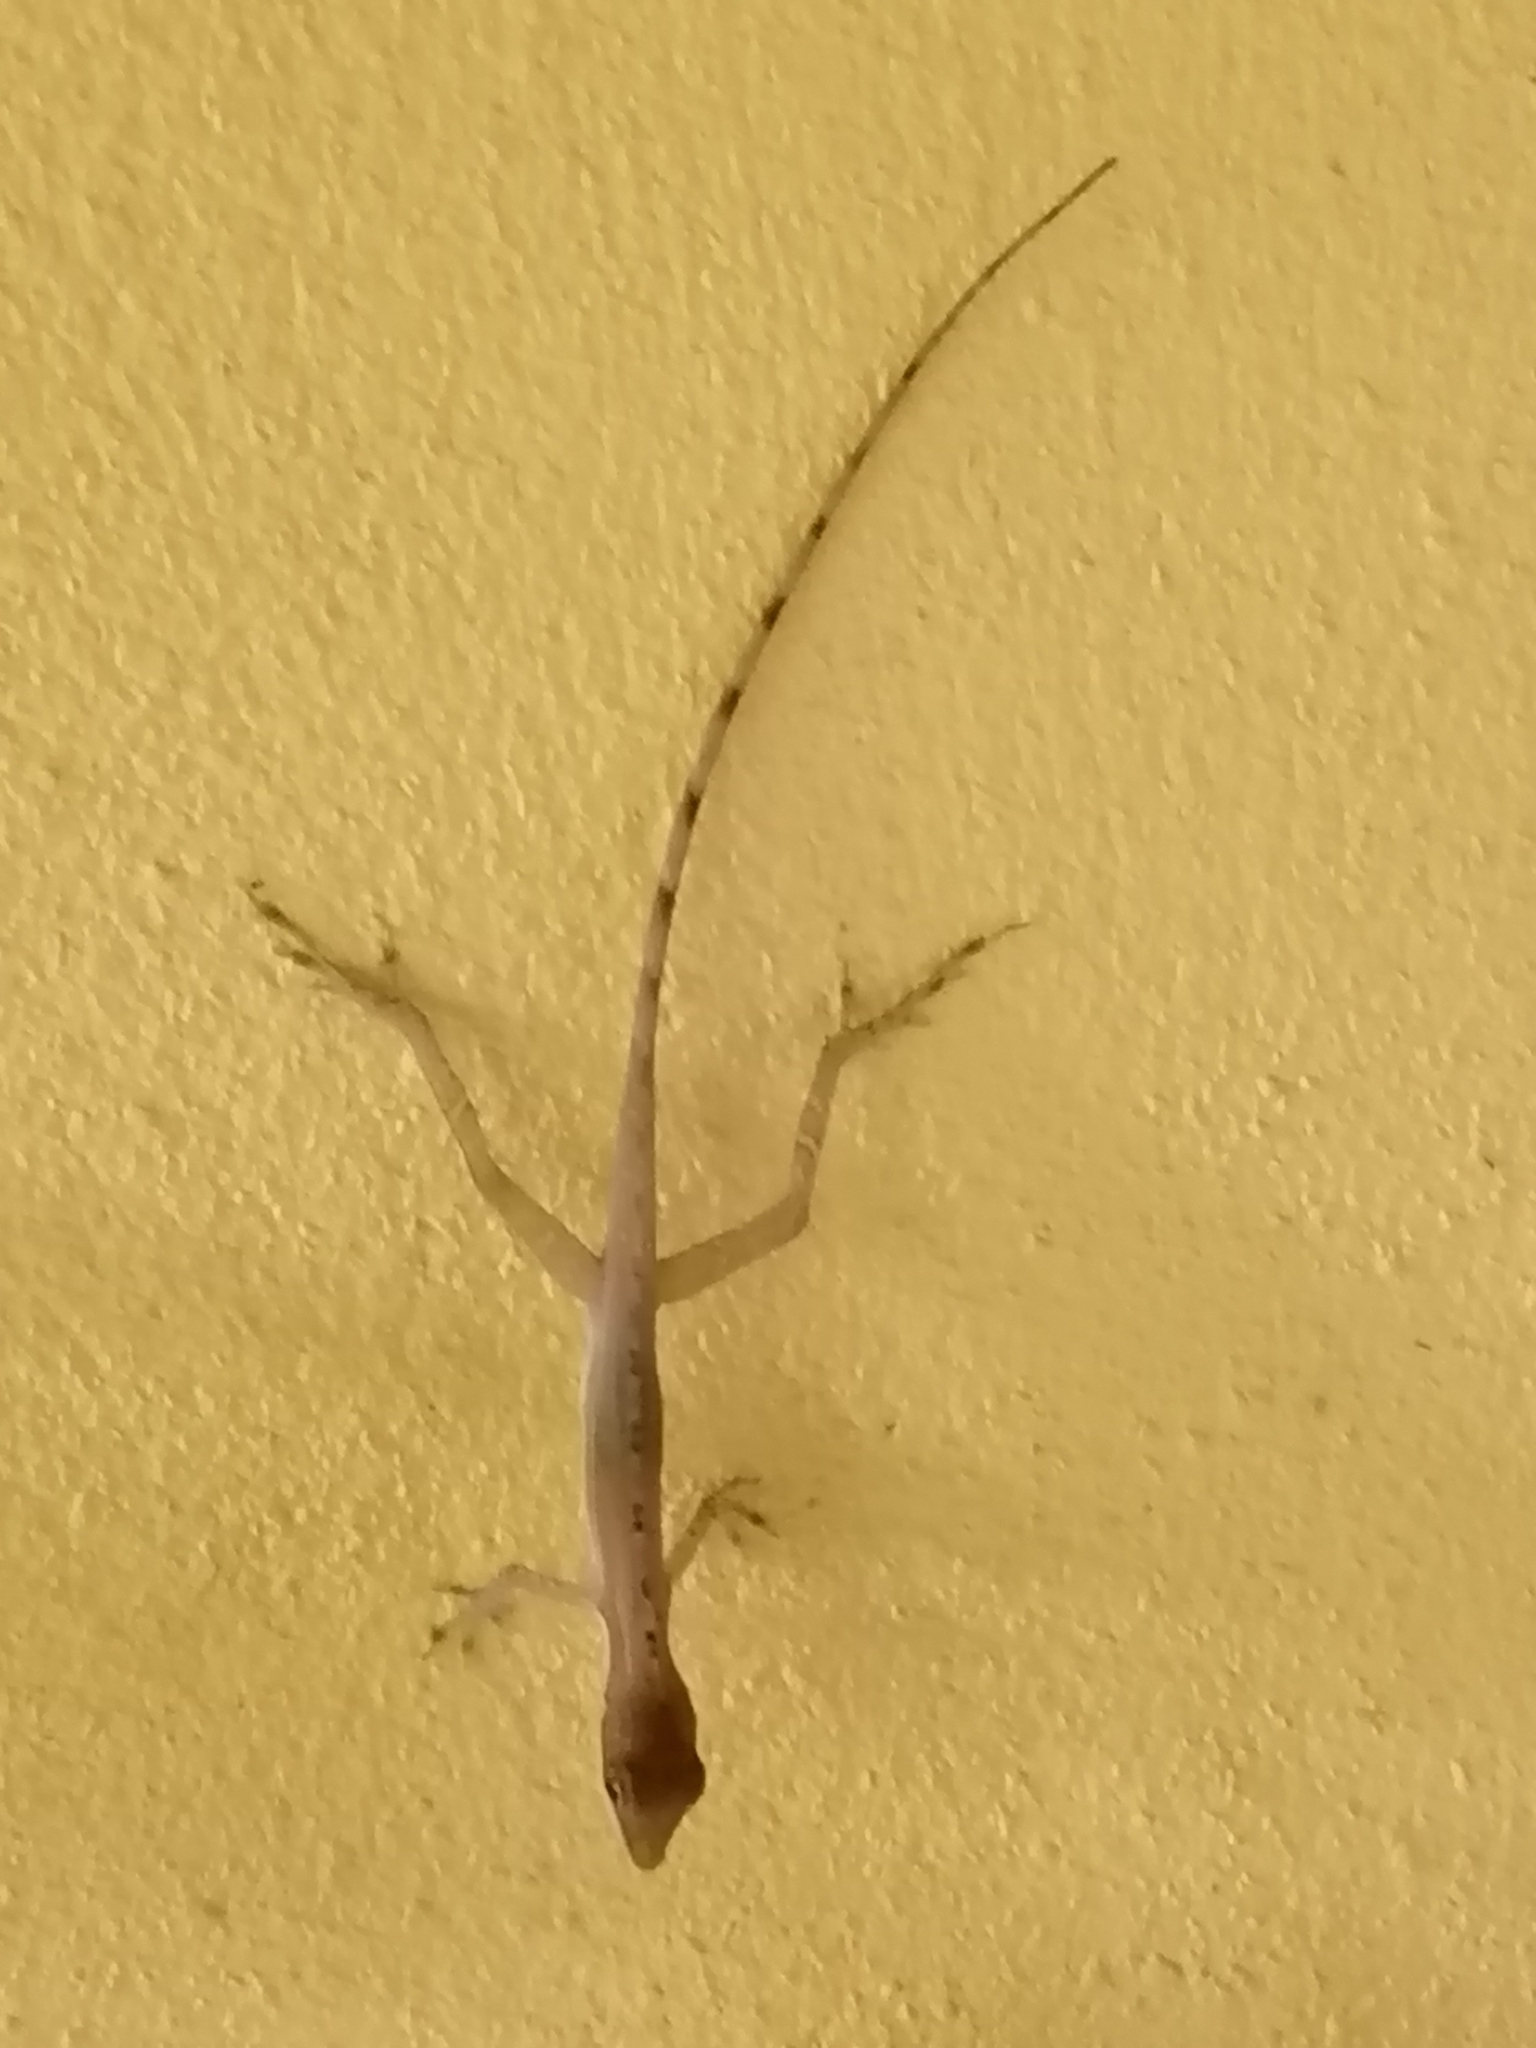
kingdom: Animalia
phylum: Chordata
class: Squamata
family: Dactyloidae
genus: Anolis
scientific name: Anolis limifrons
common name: Border anole
